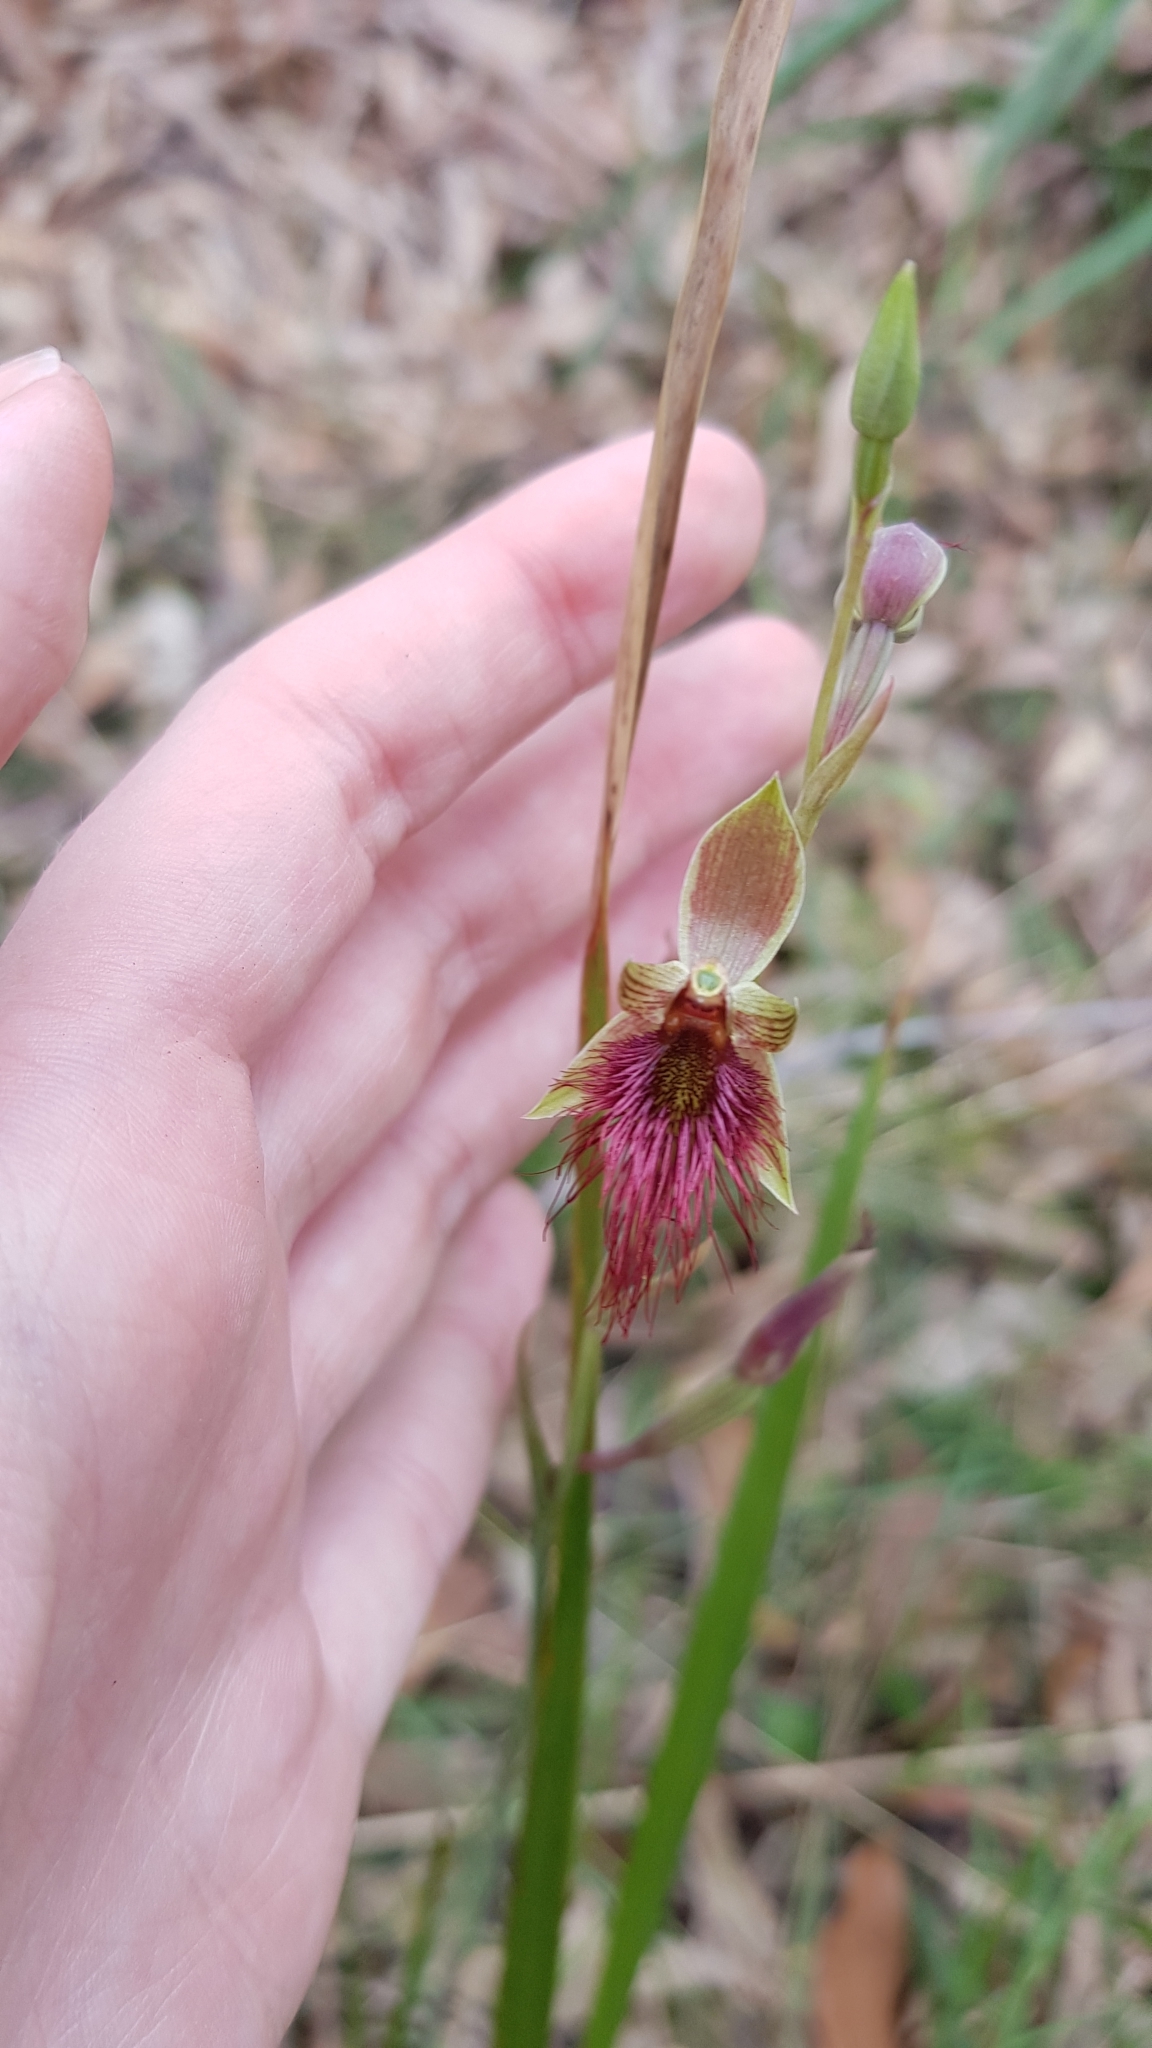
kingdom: Plantae
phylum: Tracheophyta
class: Liliopsida
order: Asparagales
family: Orchidaceae
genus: Calochilus
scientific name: Calochilus paludosus
